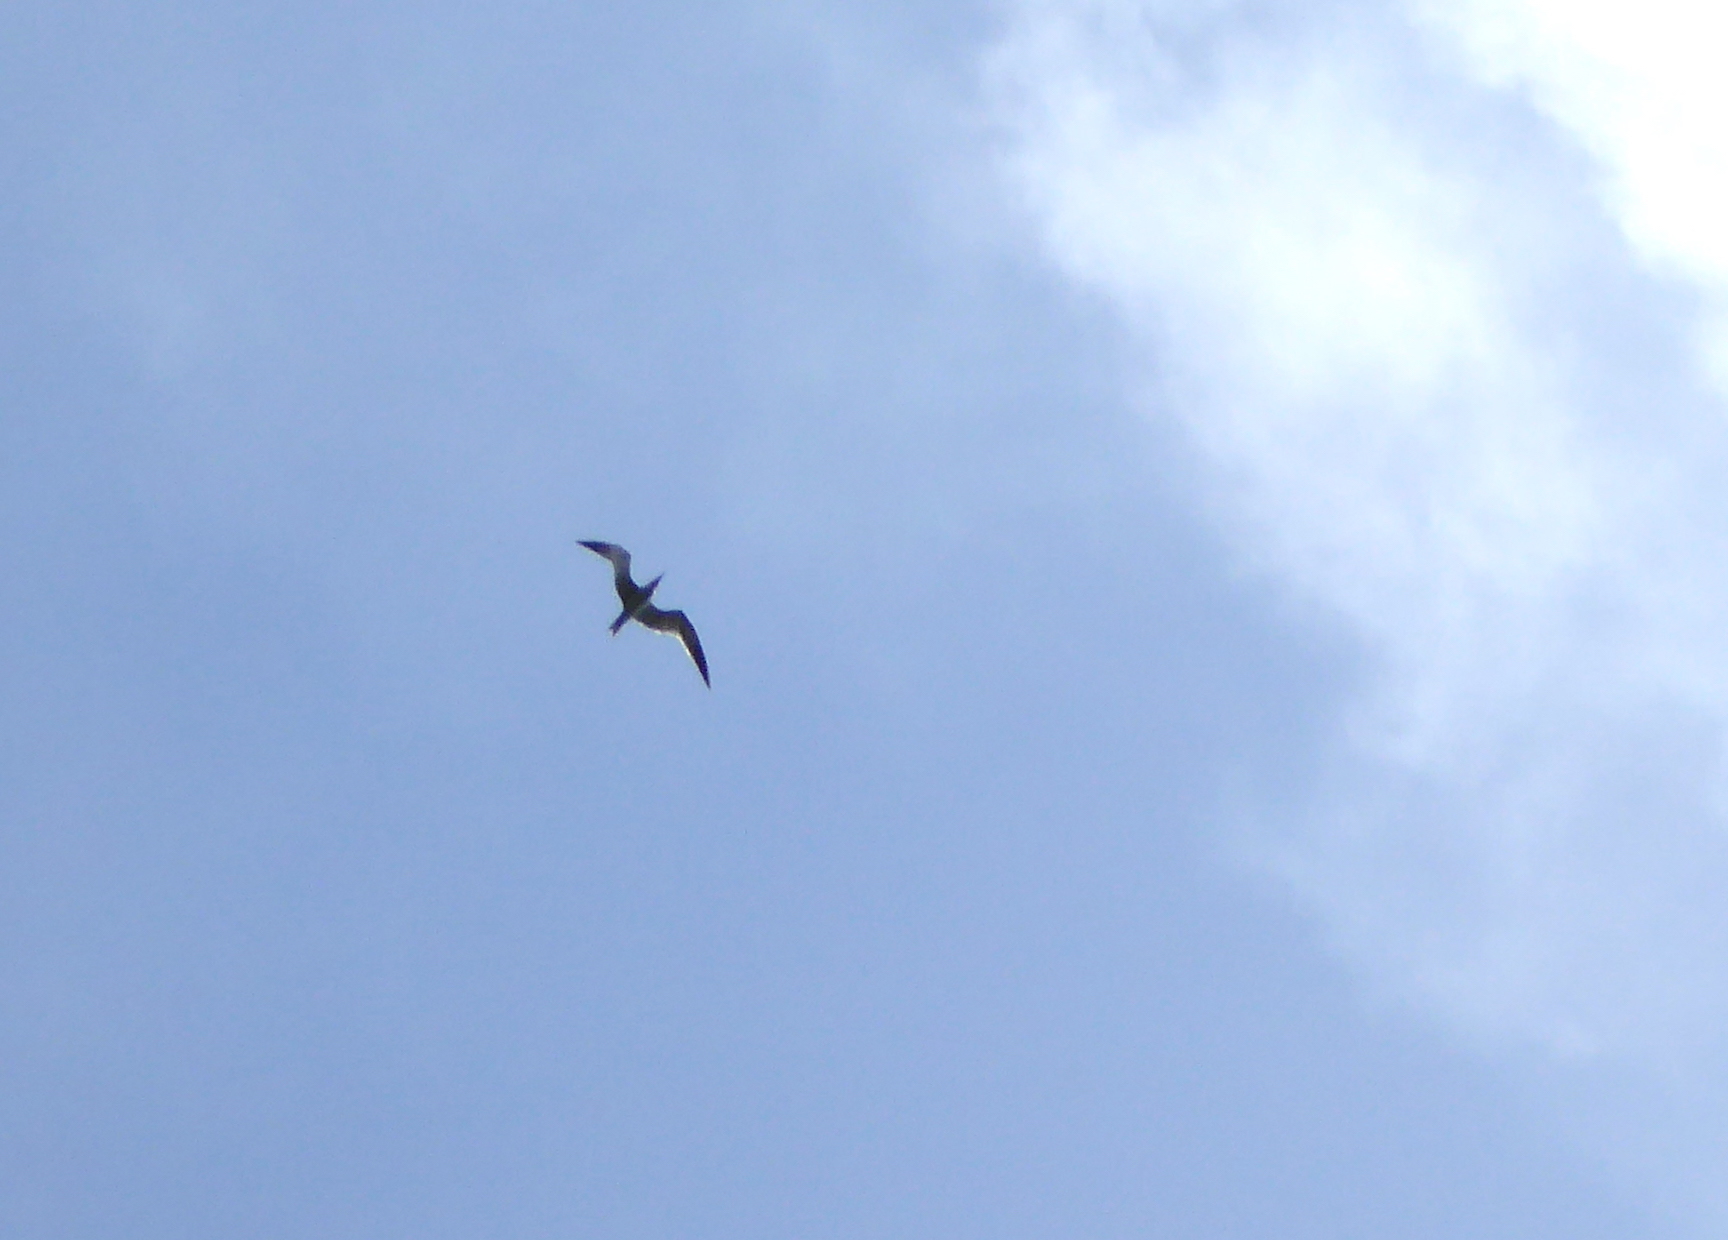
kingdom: Animalia
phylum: Chordata
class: Aves
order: Charadriiformes
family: Laridae
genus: Hydroprogne
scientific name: Hydroprogne caspia
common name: Caspian tern
